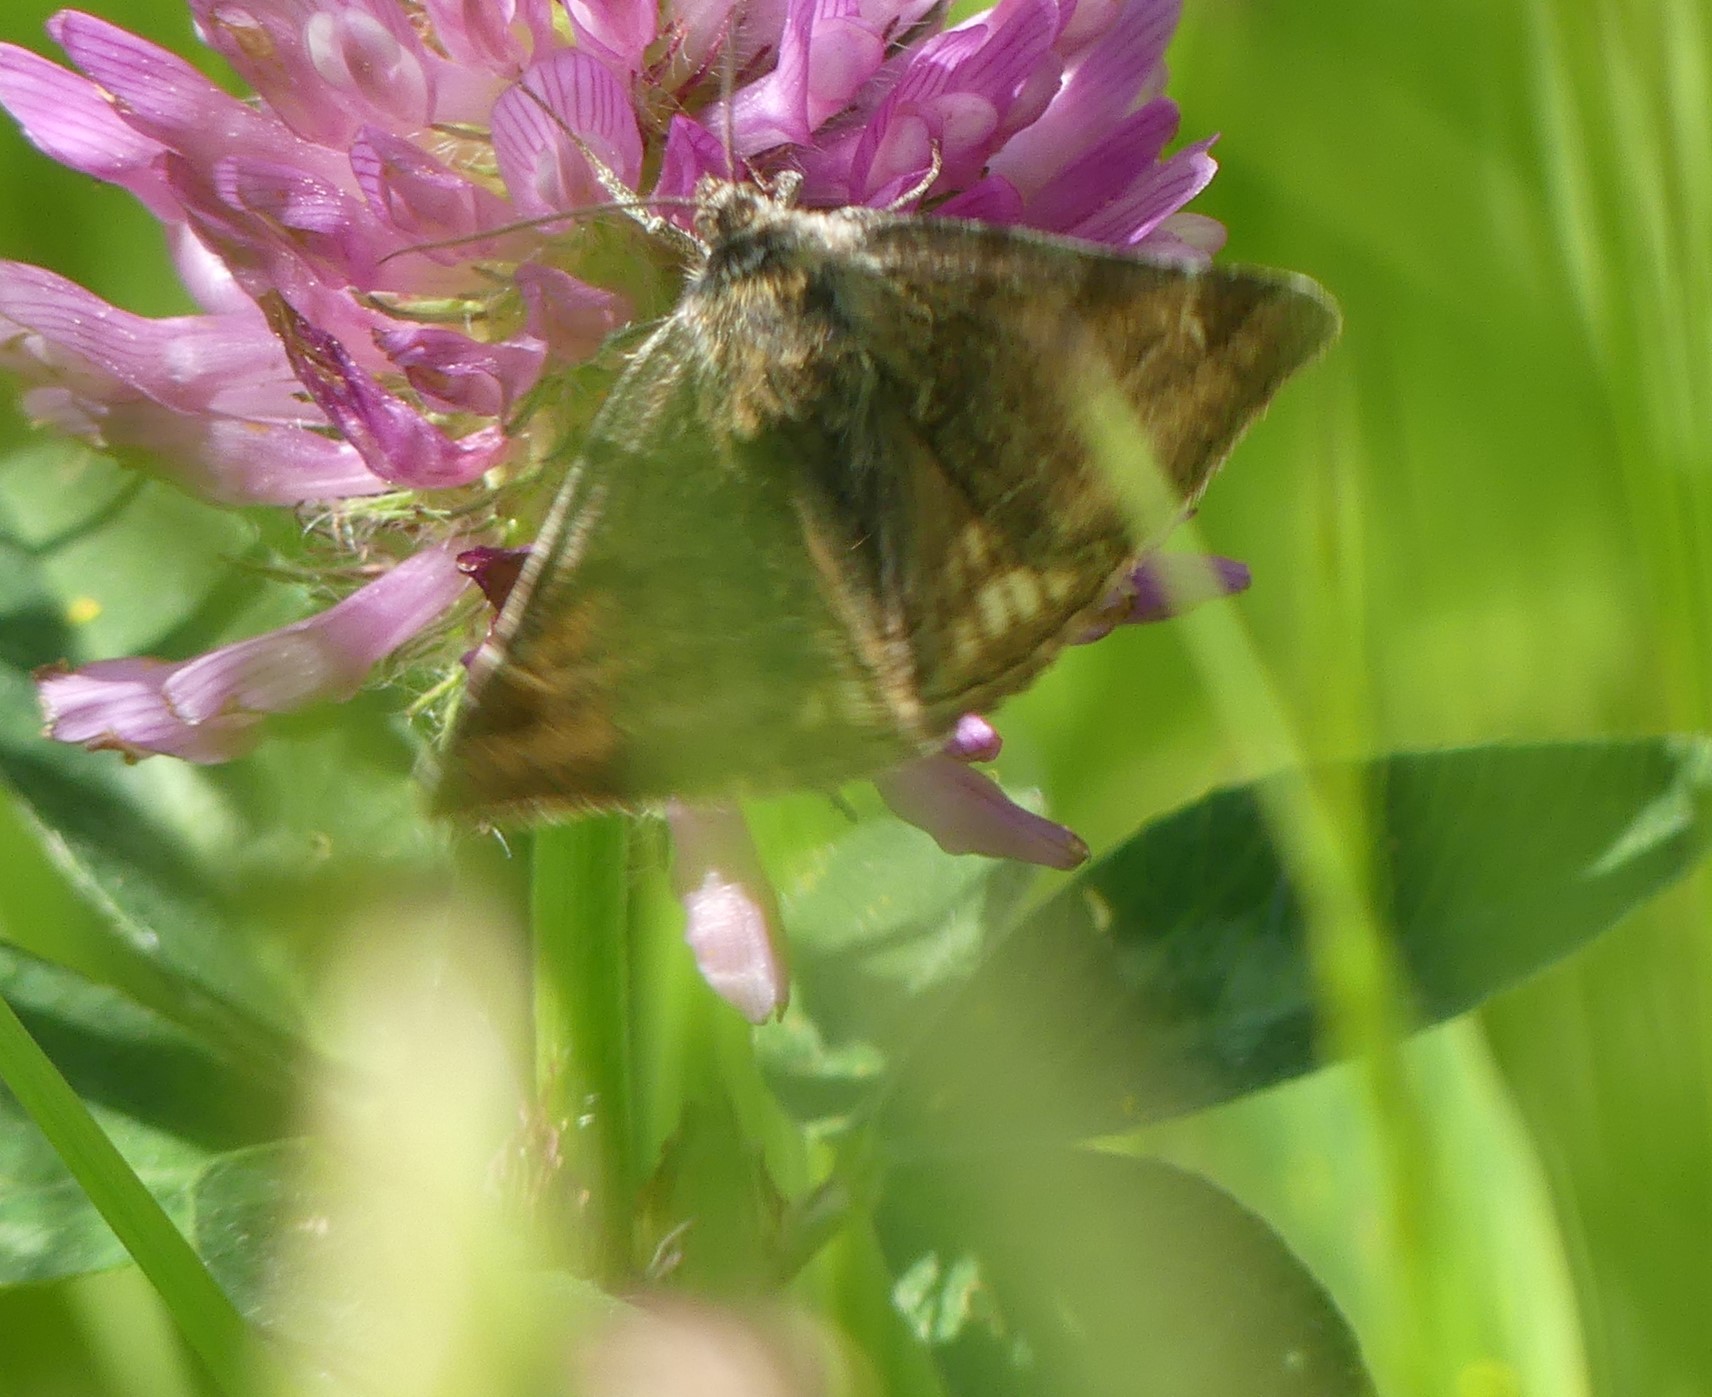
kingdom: Animalia
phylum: Arthropoda
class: Insecta
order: Lepidoptera
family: Erebidae
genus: Euclidia
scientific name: Euclidia glyphica
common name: Burnet companion
